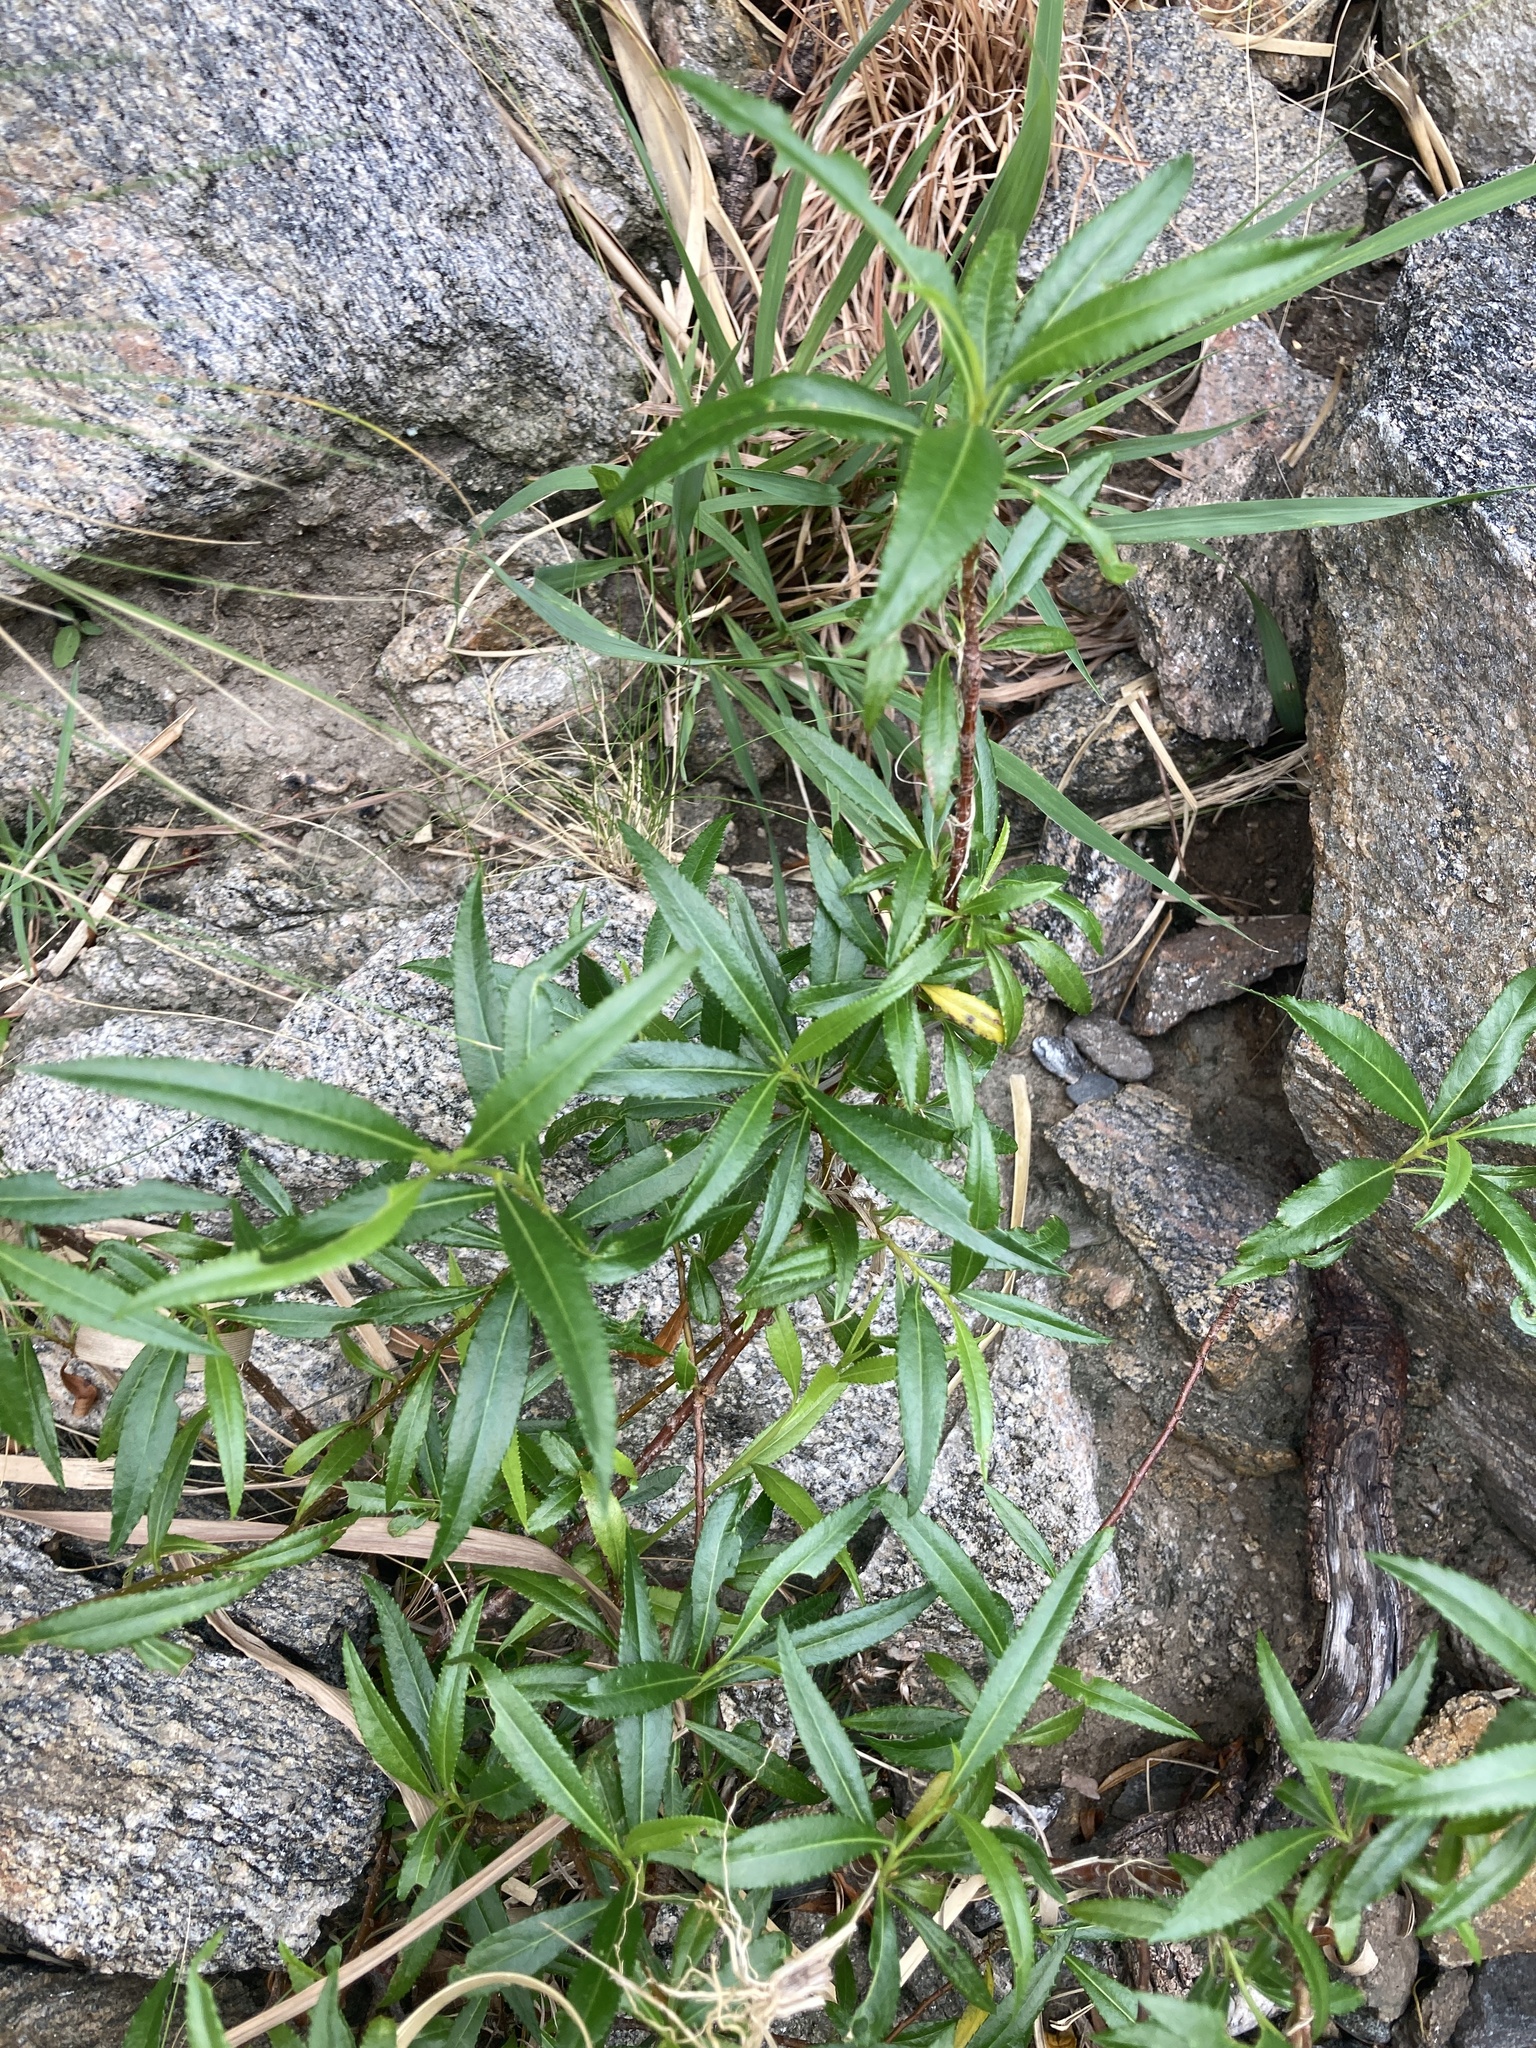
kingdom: Plantae
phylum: Tracheophyta
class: Magnoliopsida
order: Rosales
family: Rosaceae
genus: Kageneckia
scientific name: Kageneckia lanceolata
